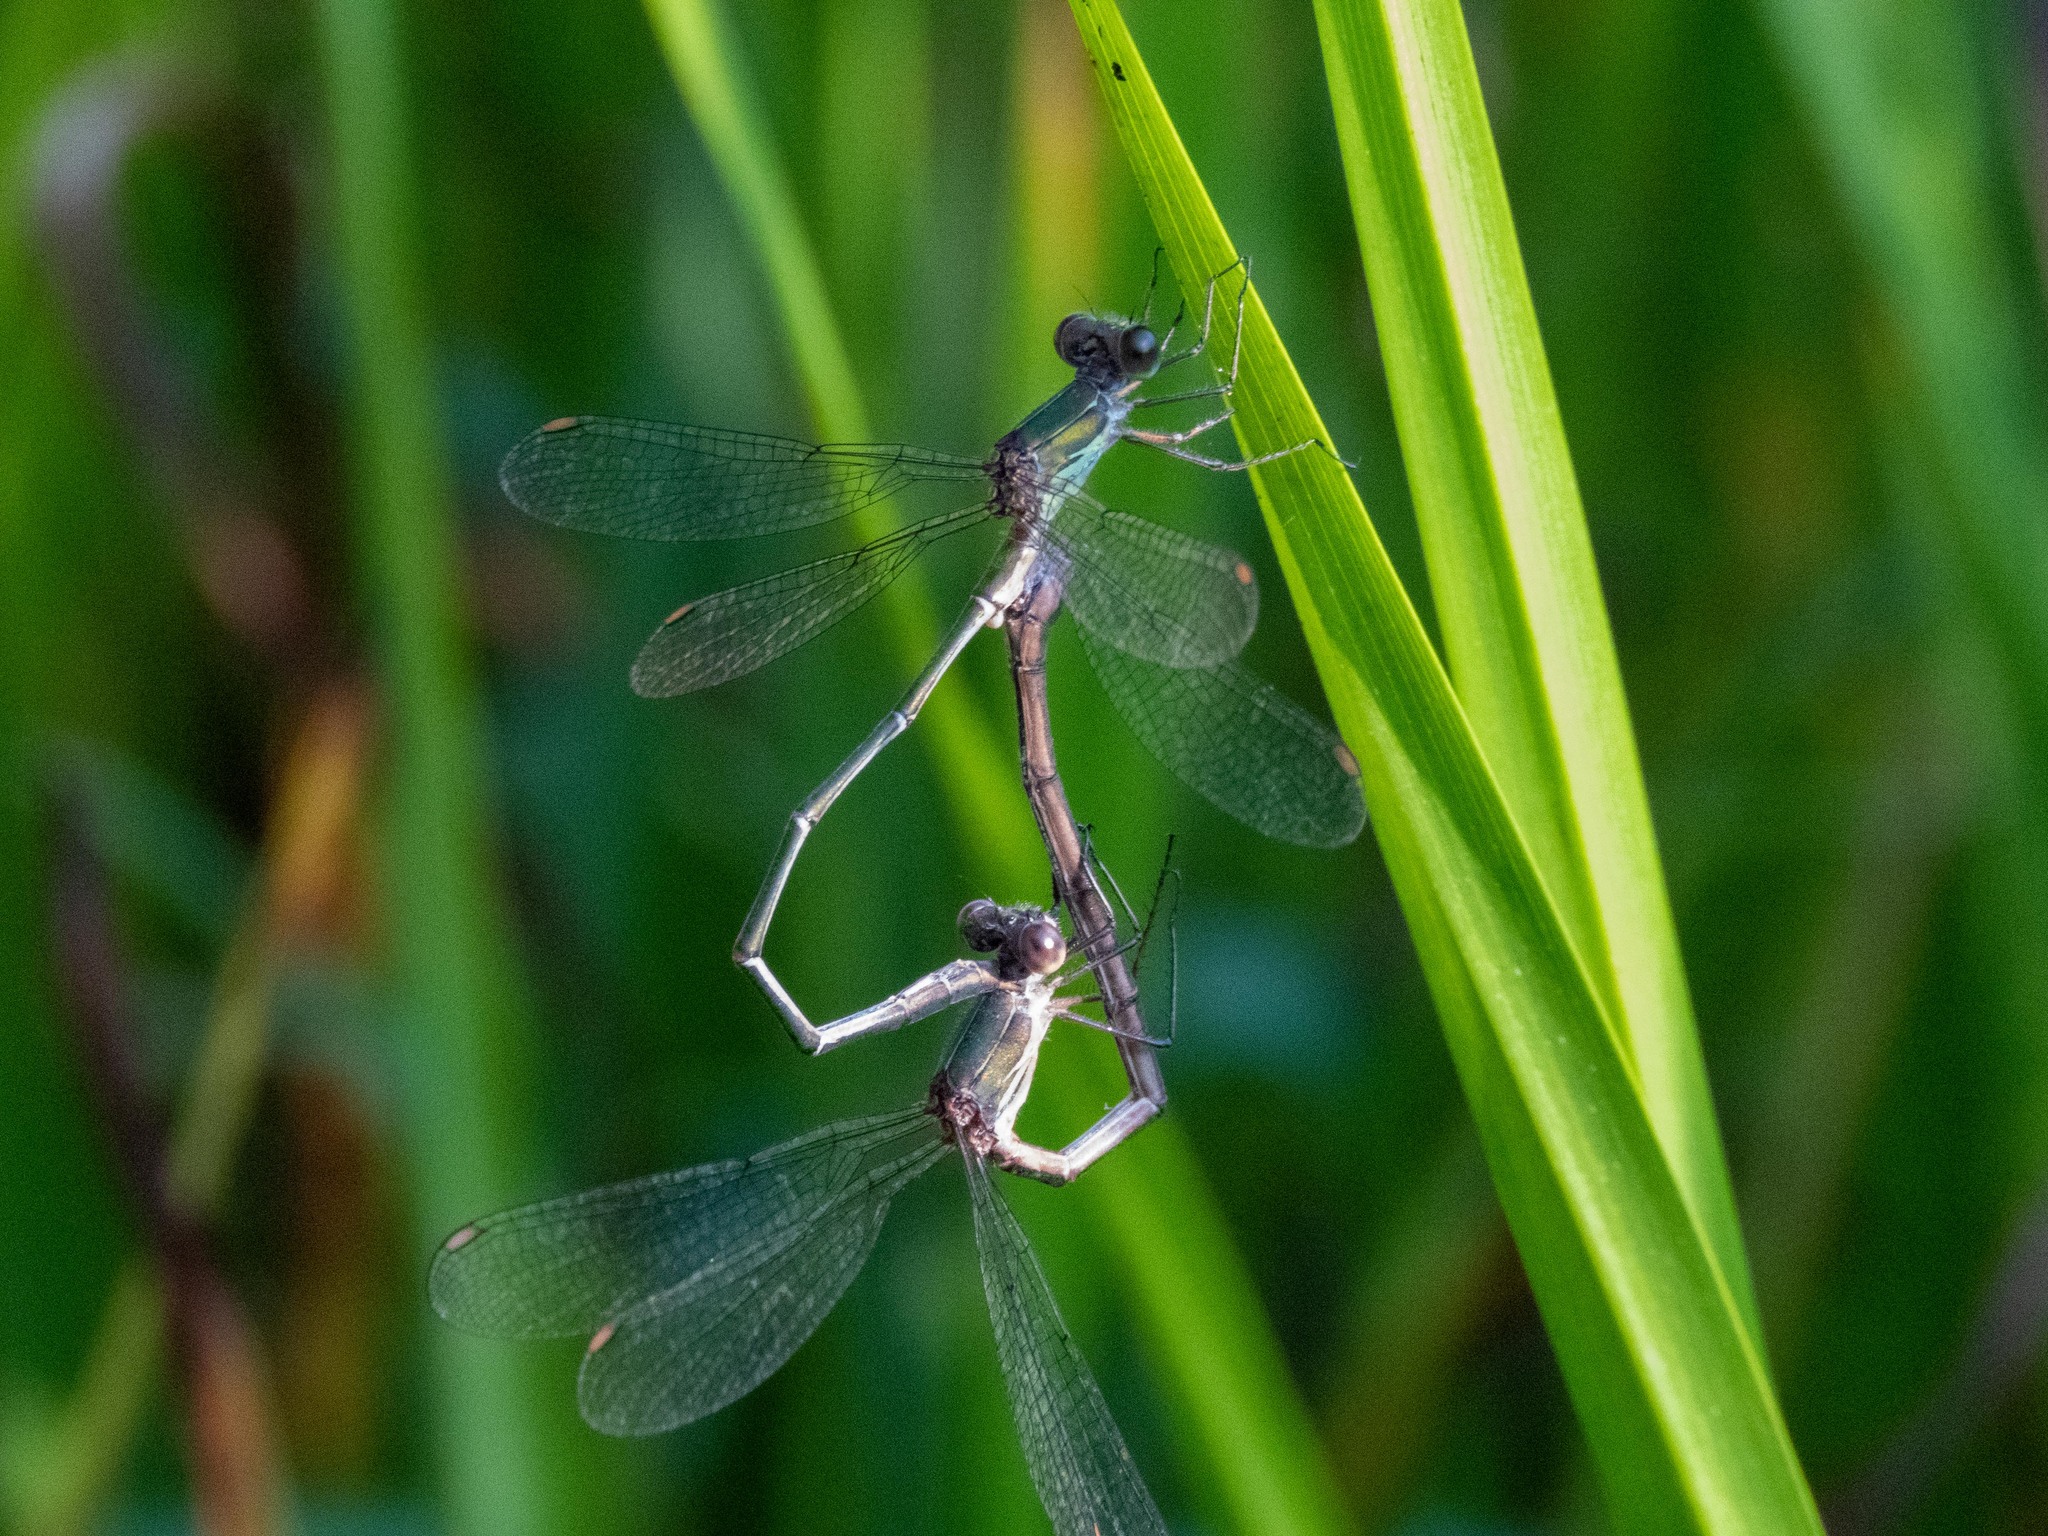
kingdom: Animalia
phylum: Arthropoda
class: Insecta
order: Odonata
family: Lestidae
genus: Chalcolestes
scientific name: Chalcolestes viridis
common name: Green emerald damselfly
